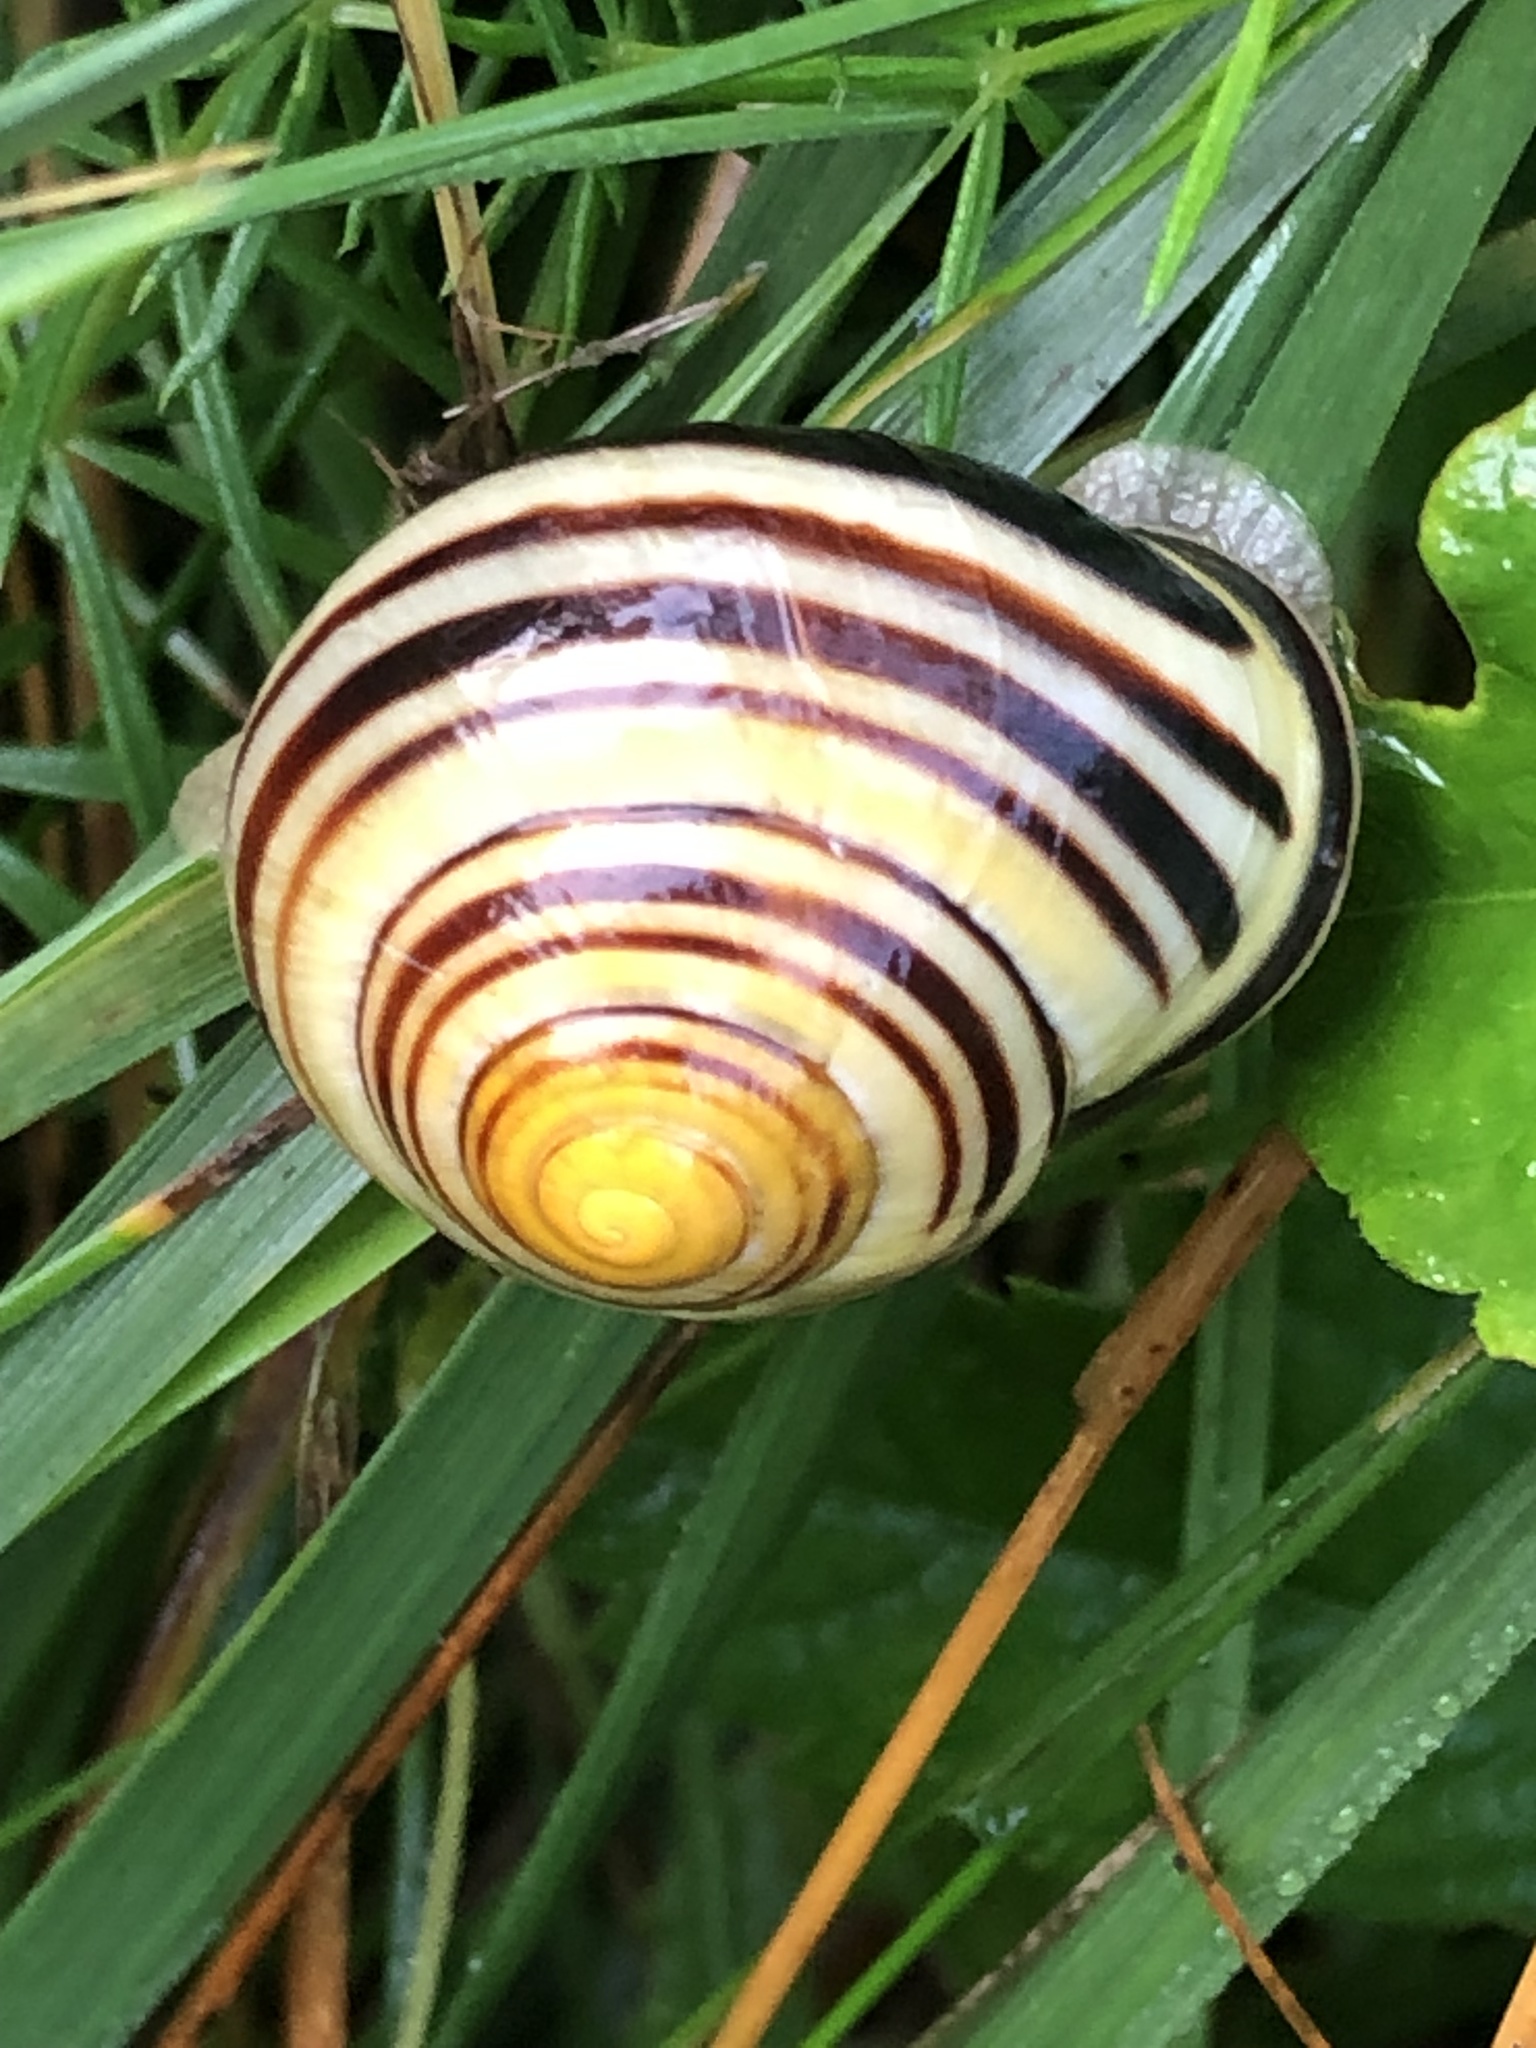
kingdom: Animalia
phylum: Mollusca
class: Gastropoda
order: Stylommatophora
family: Helicidae
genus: Cepaea
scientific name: Cepaea nemoralis
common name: Grovesnail
